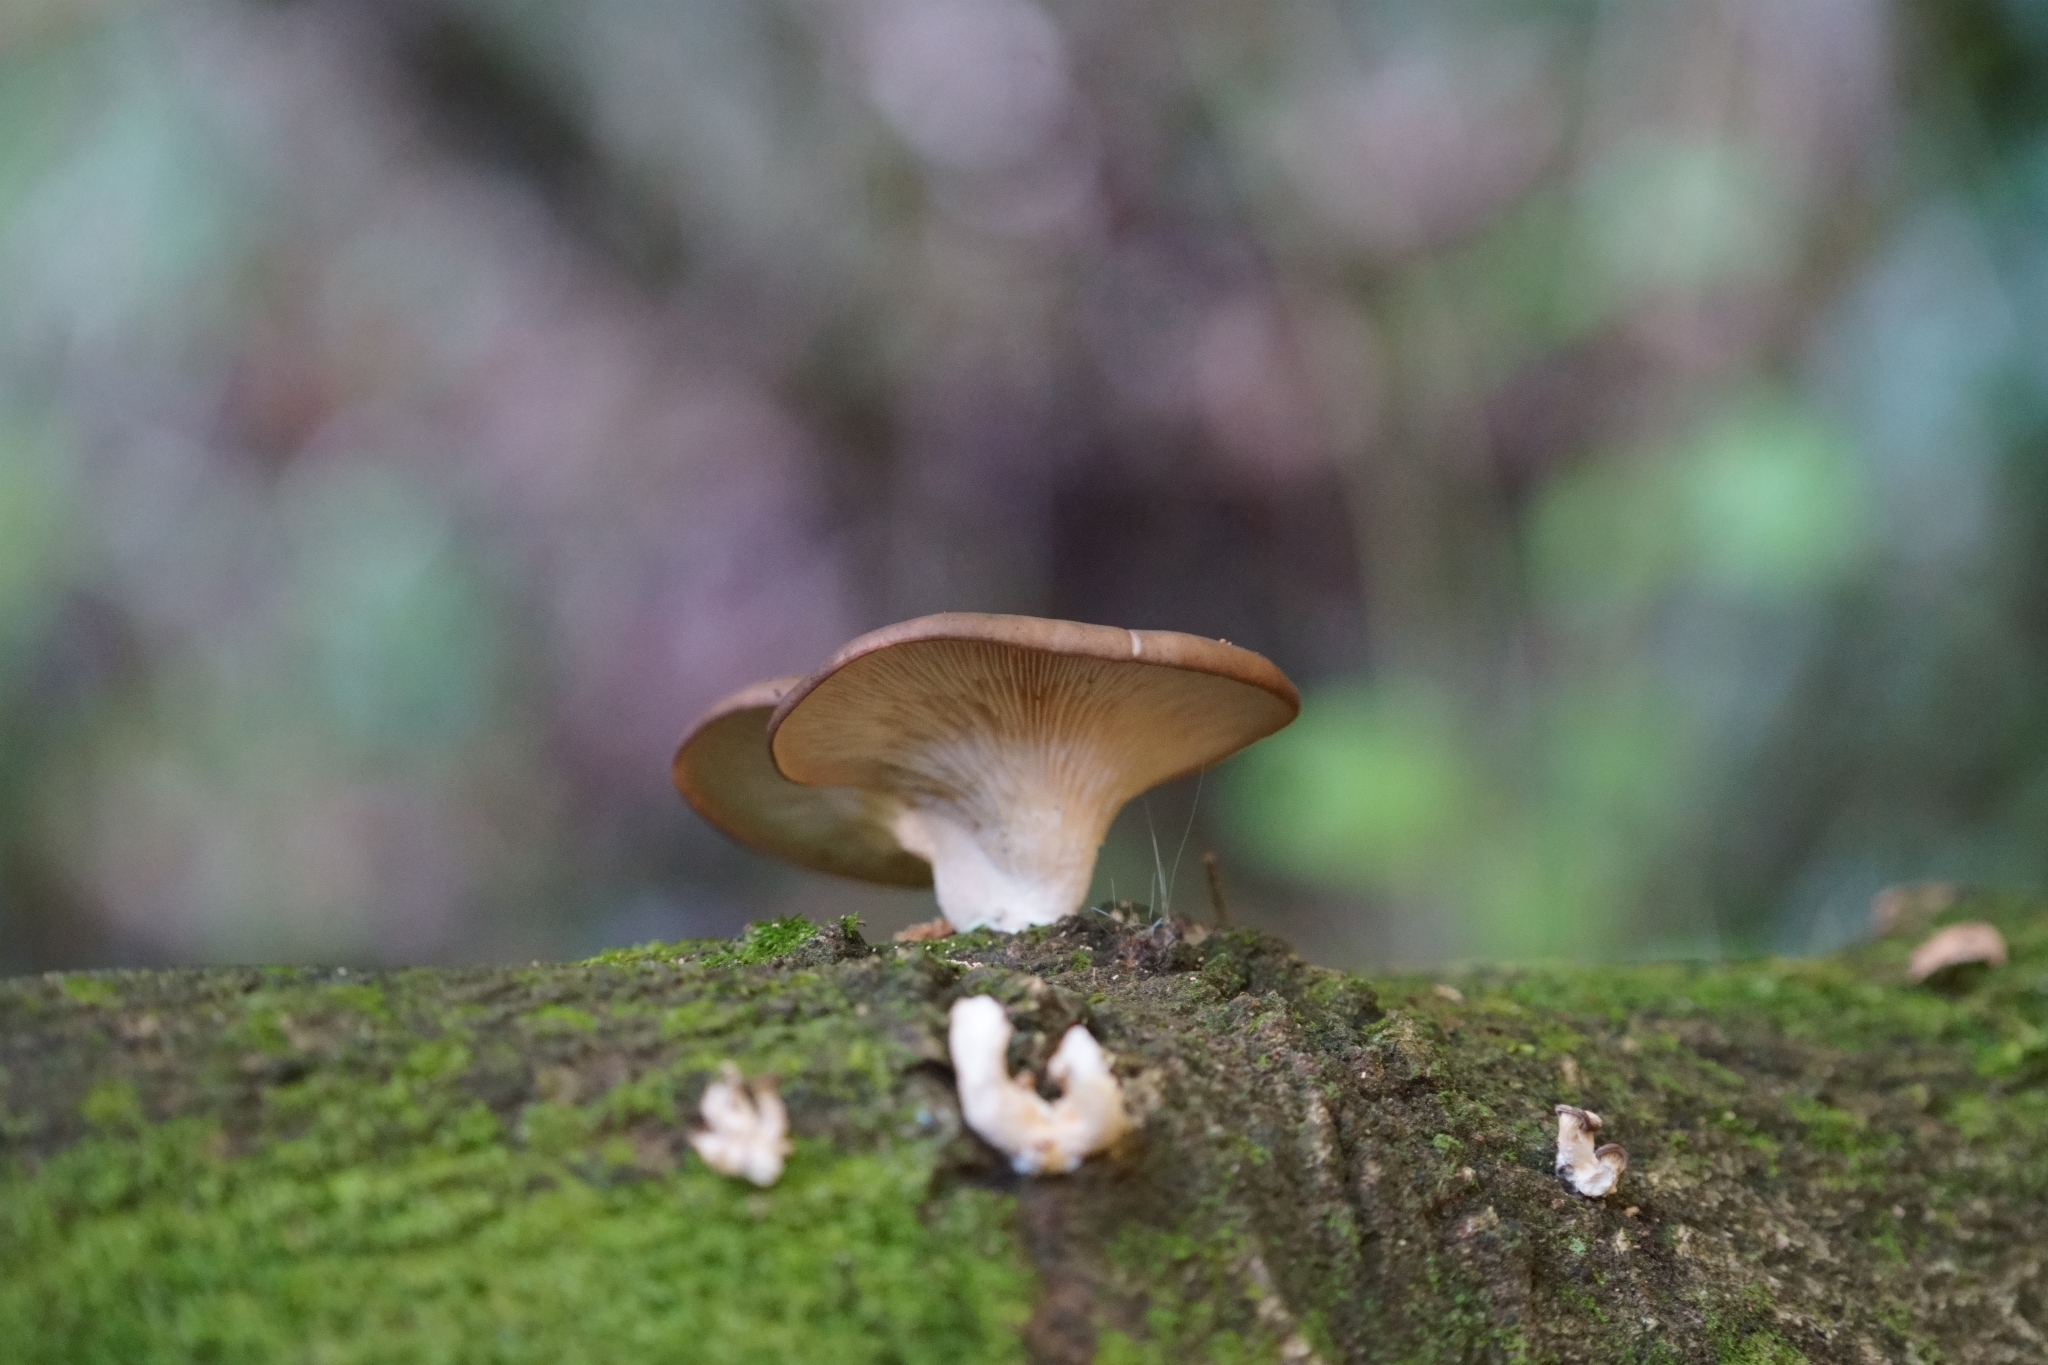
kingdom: Fungi
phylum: Basidiomycota
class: Agaricomycetes
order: Agaricales
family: Pleurotaceae
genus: Pleurotus
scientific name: Pleurotus ostreatus
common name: Oyster mushroom
